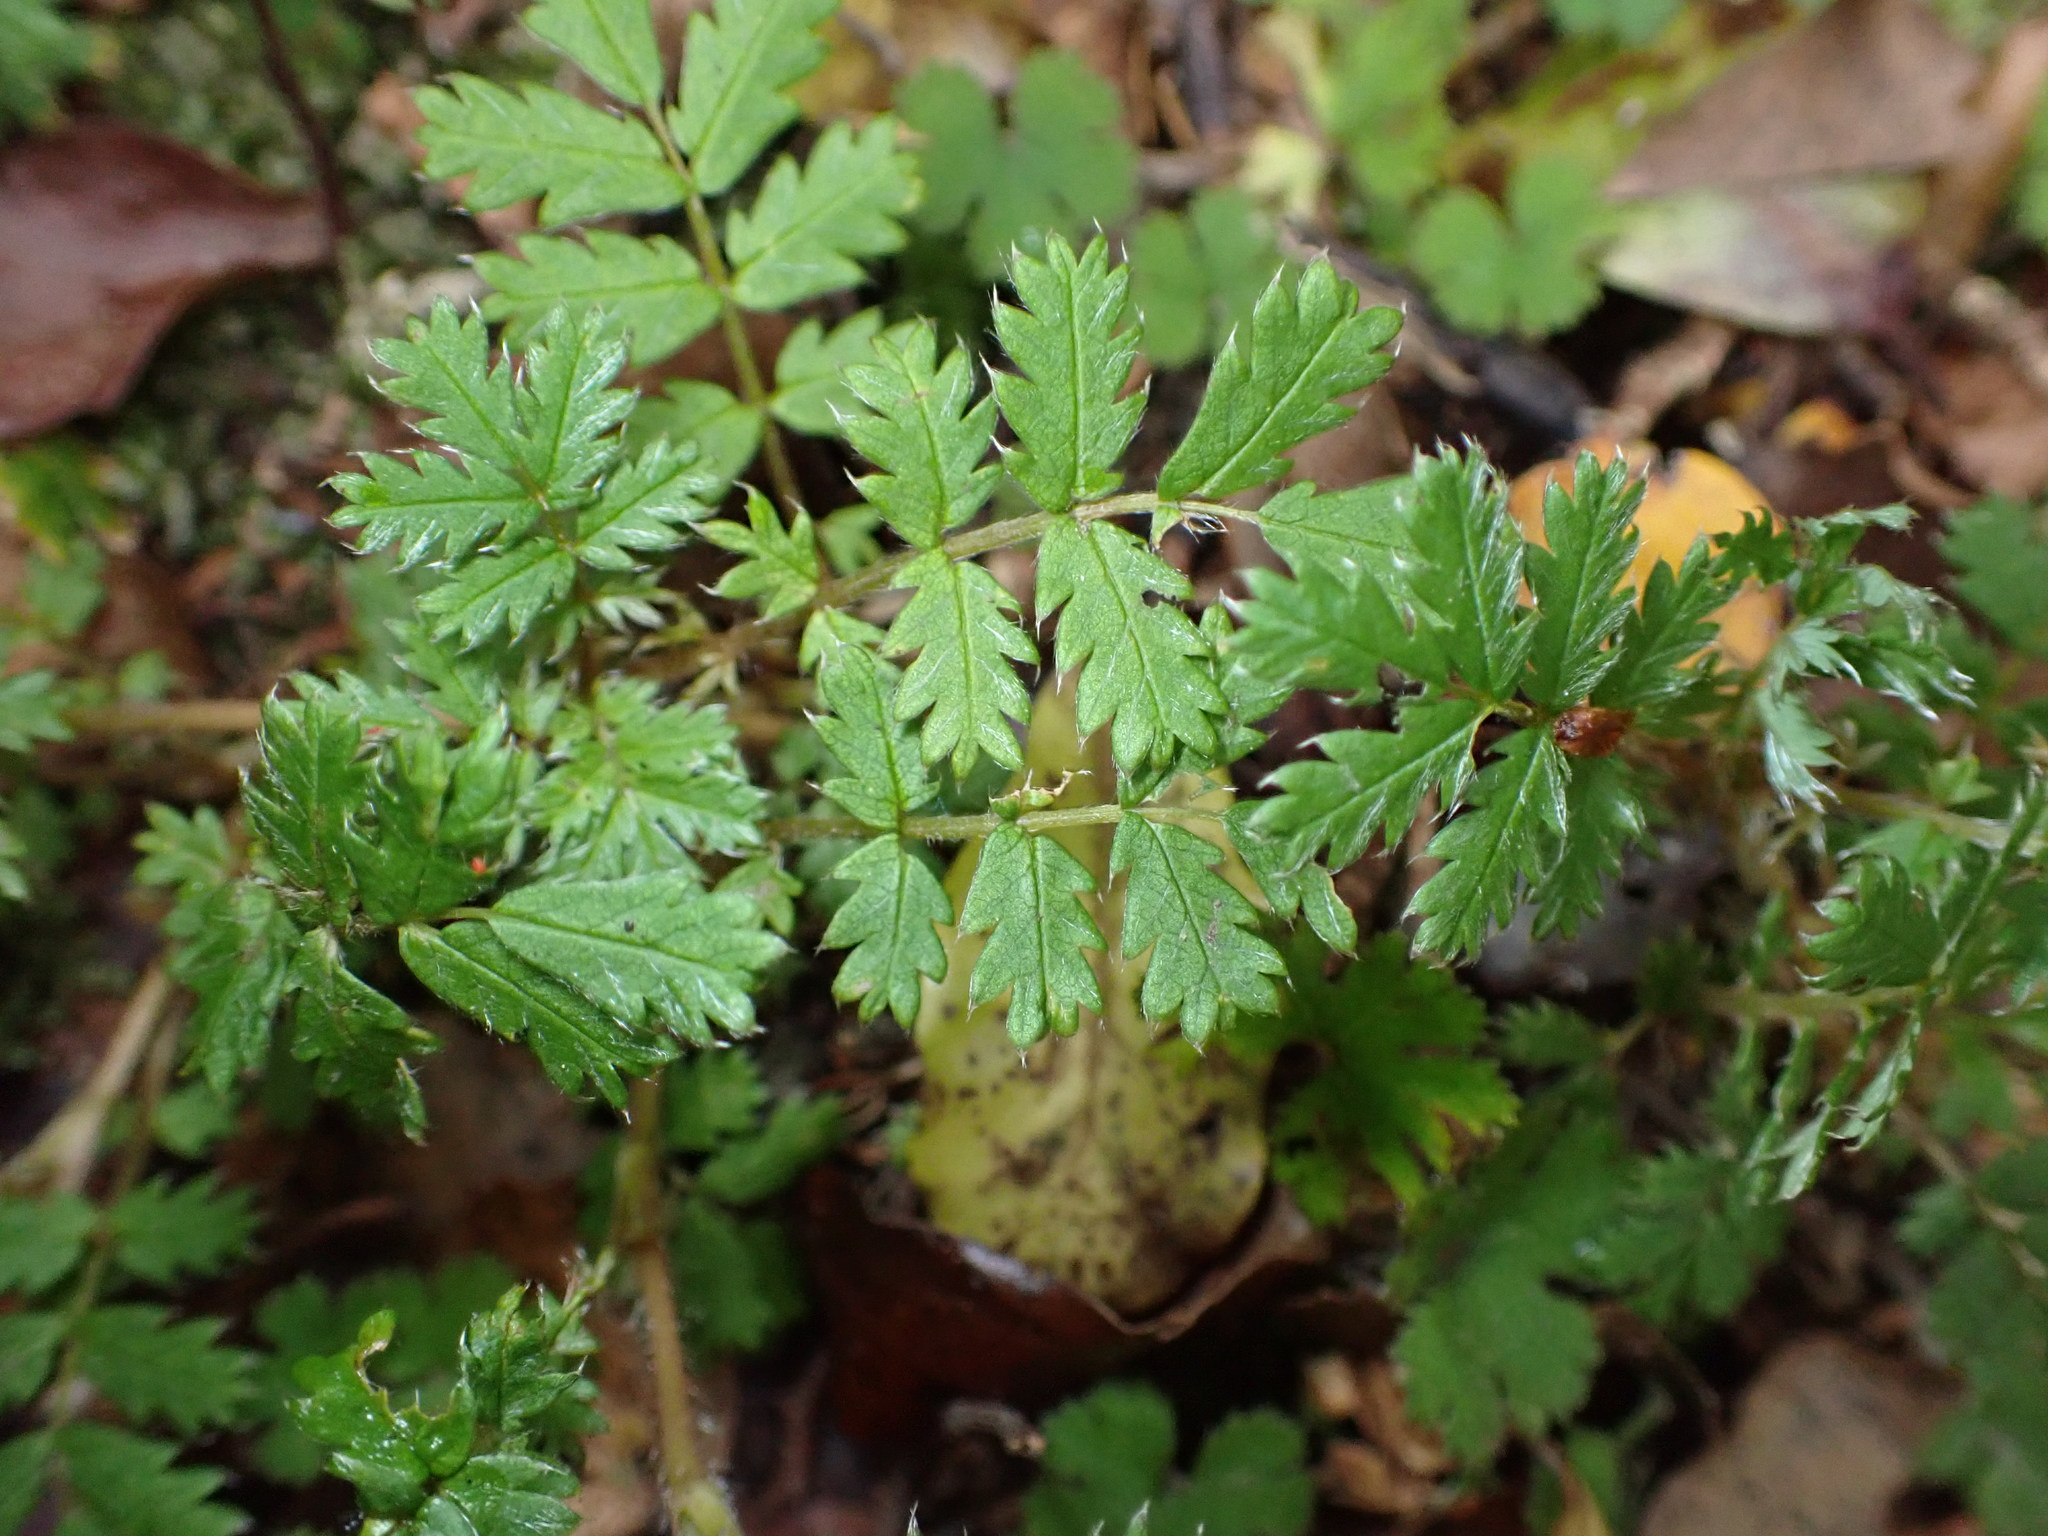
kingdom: Plantae
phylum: Tracheophyta
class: Magnoliopsida
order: Rosales
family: Rosaceae
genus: Acaena
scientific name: Acaena anserinifolia
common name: Bronze pirri-pirri-bur
